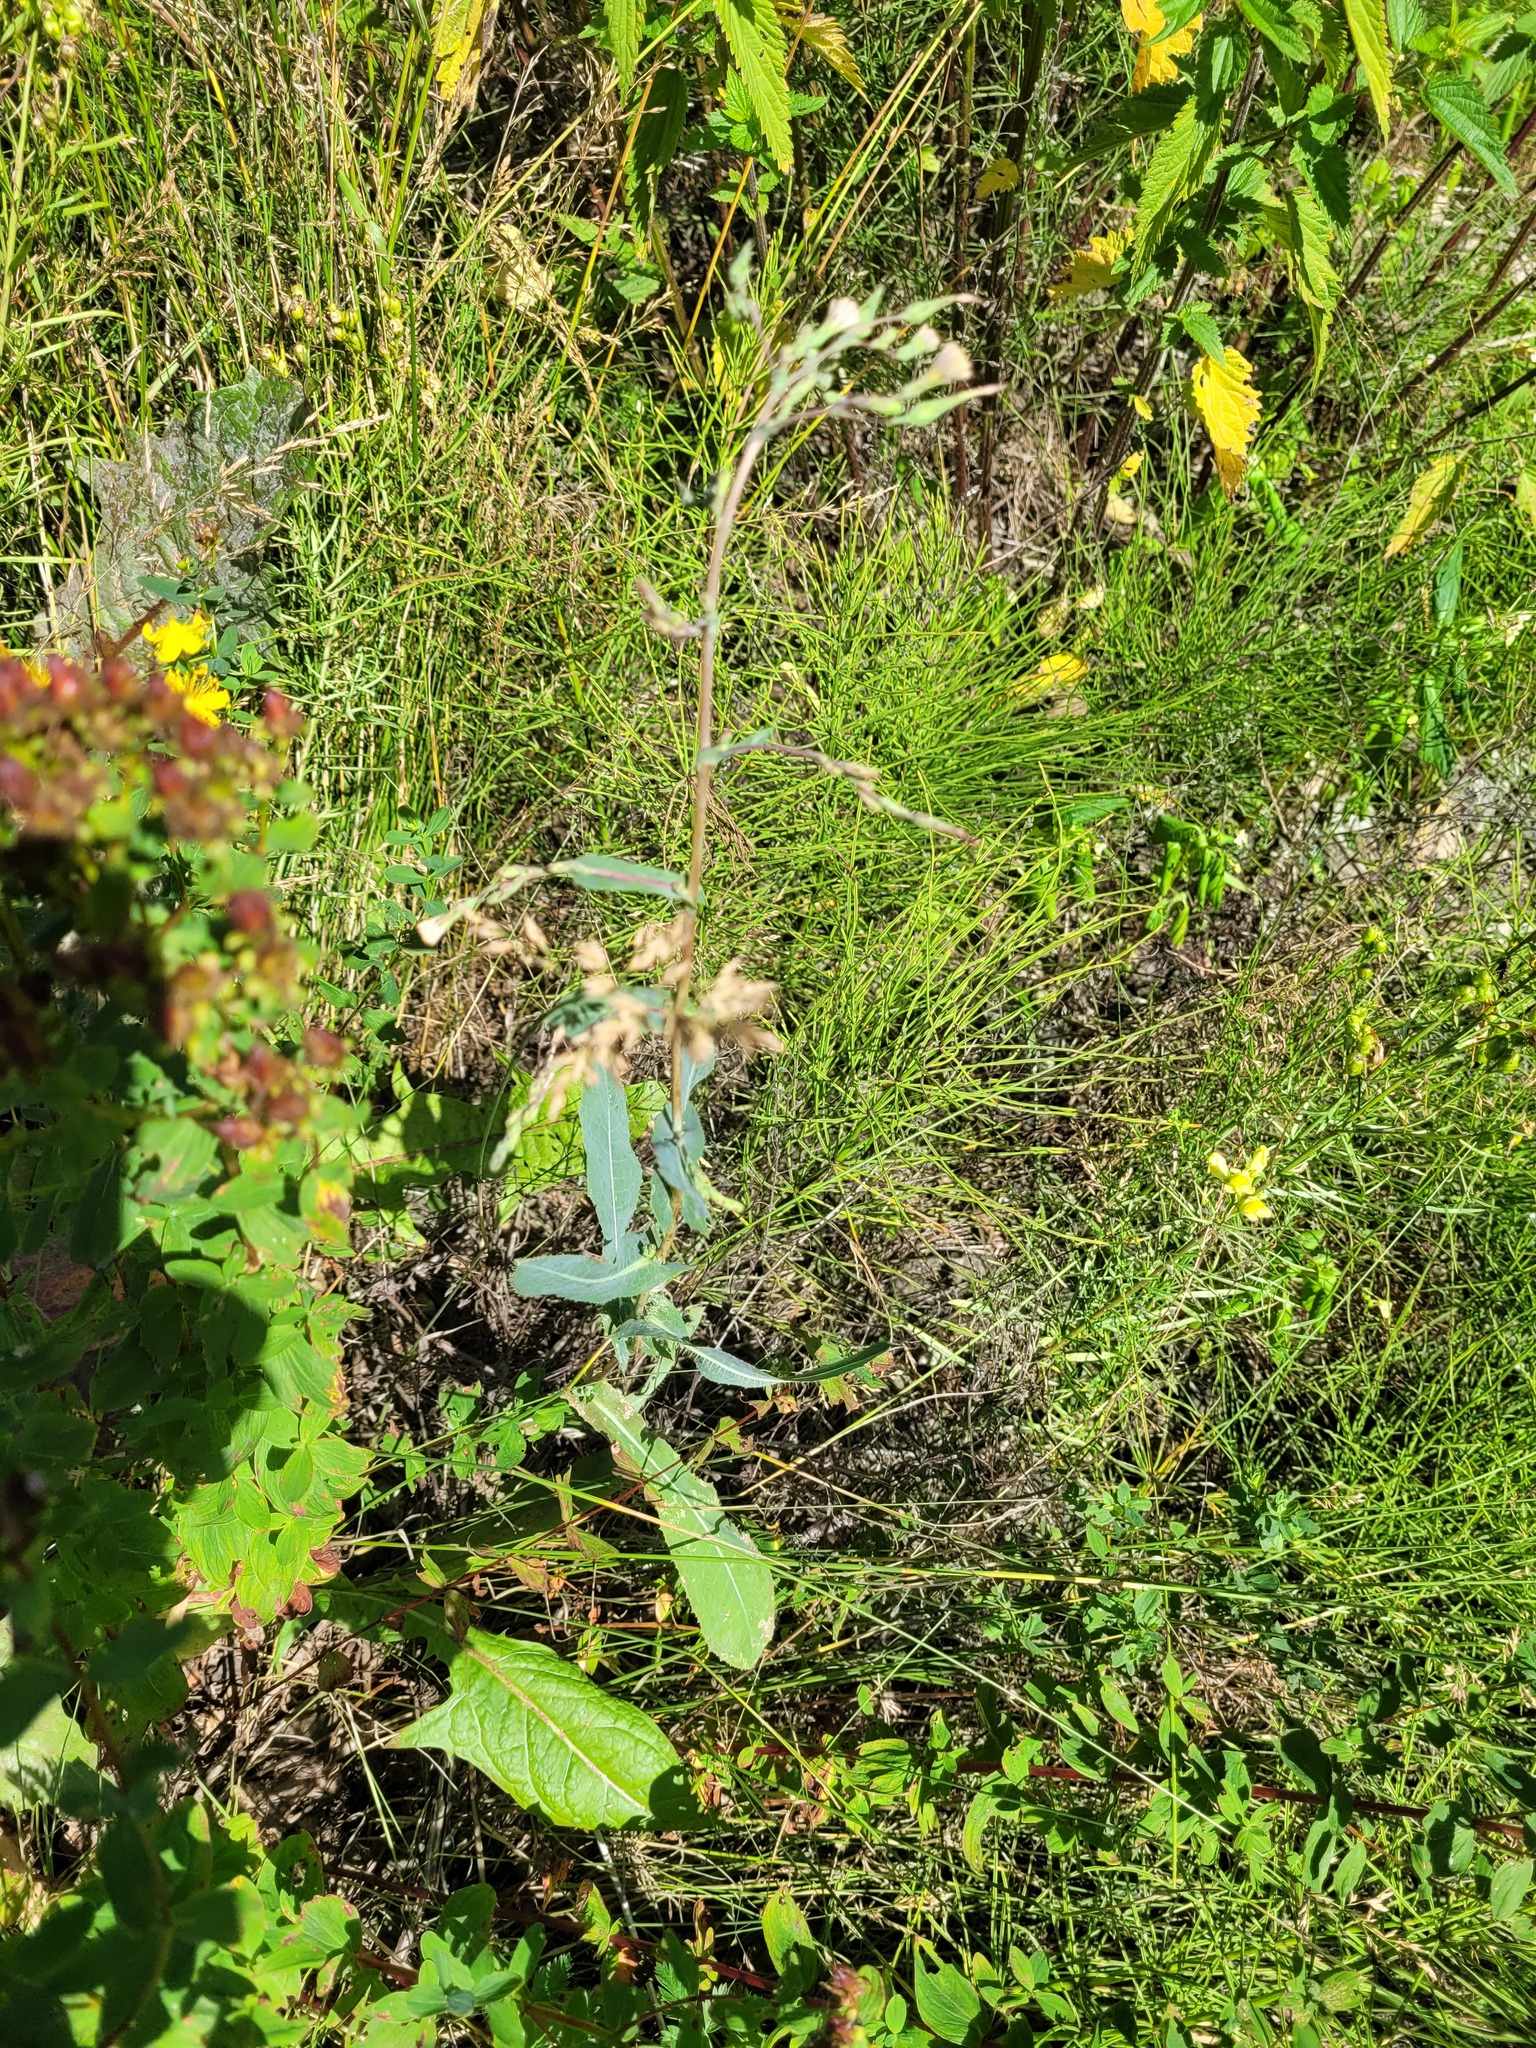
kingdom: Plantae
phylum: Tracheophyta
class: Magnoliopsida
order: Asterales
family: Asteraceae
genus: Lactuca
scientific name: Lactuca serriola
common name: Prickly lettuce
